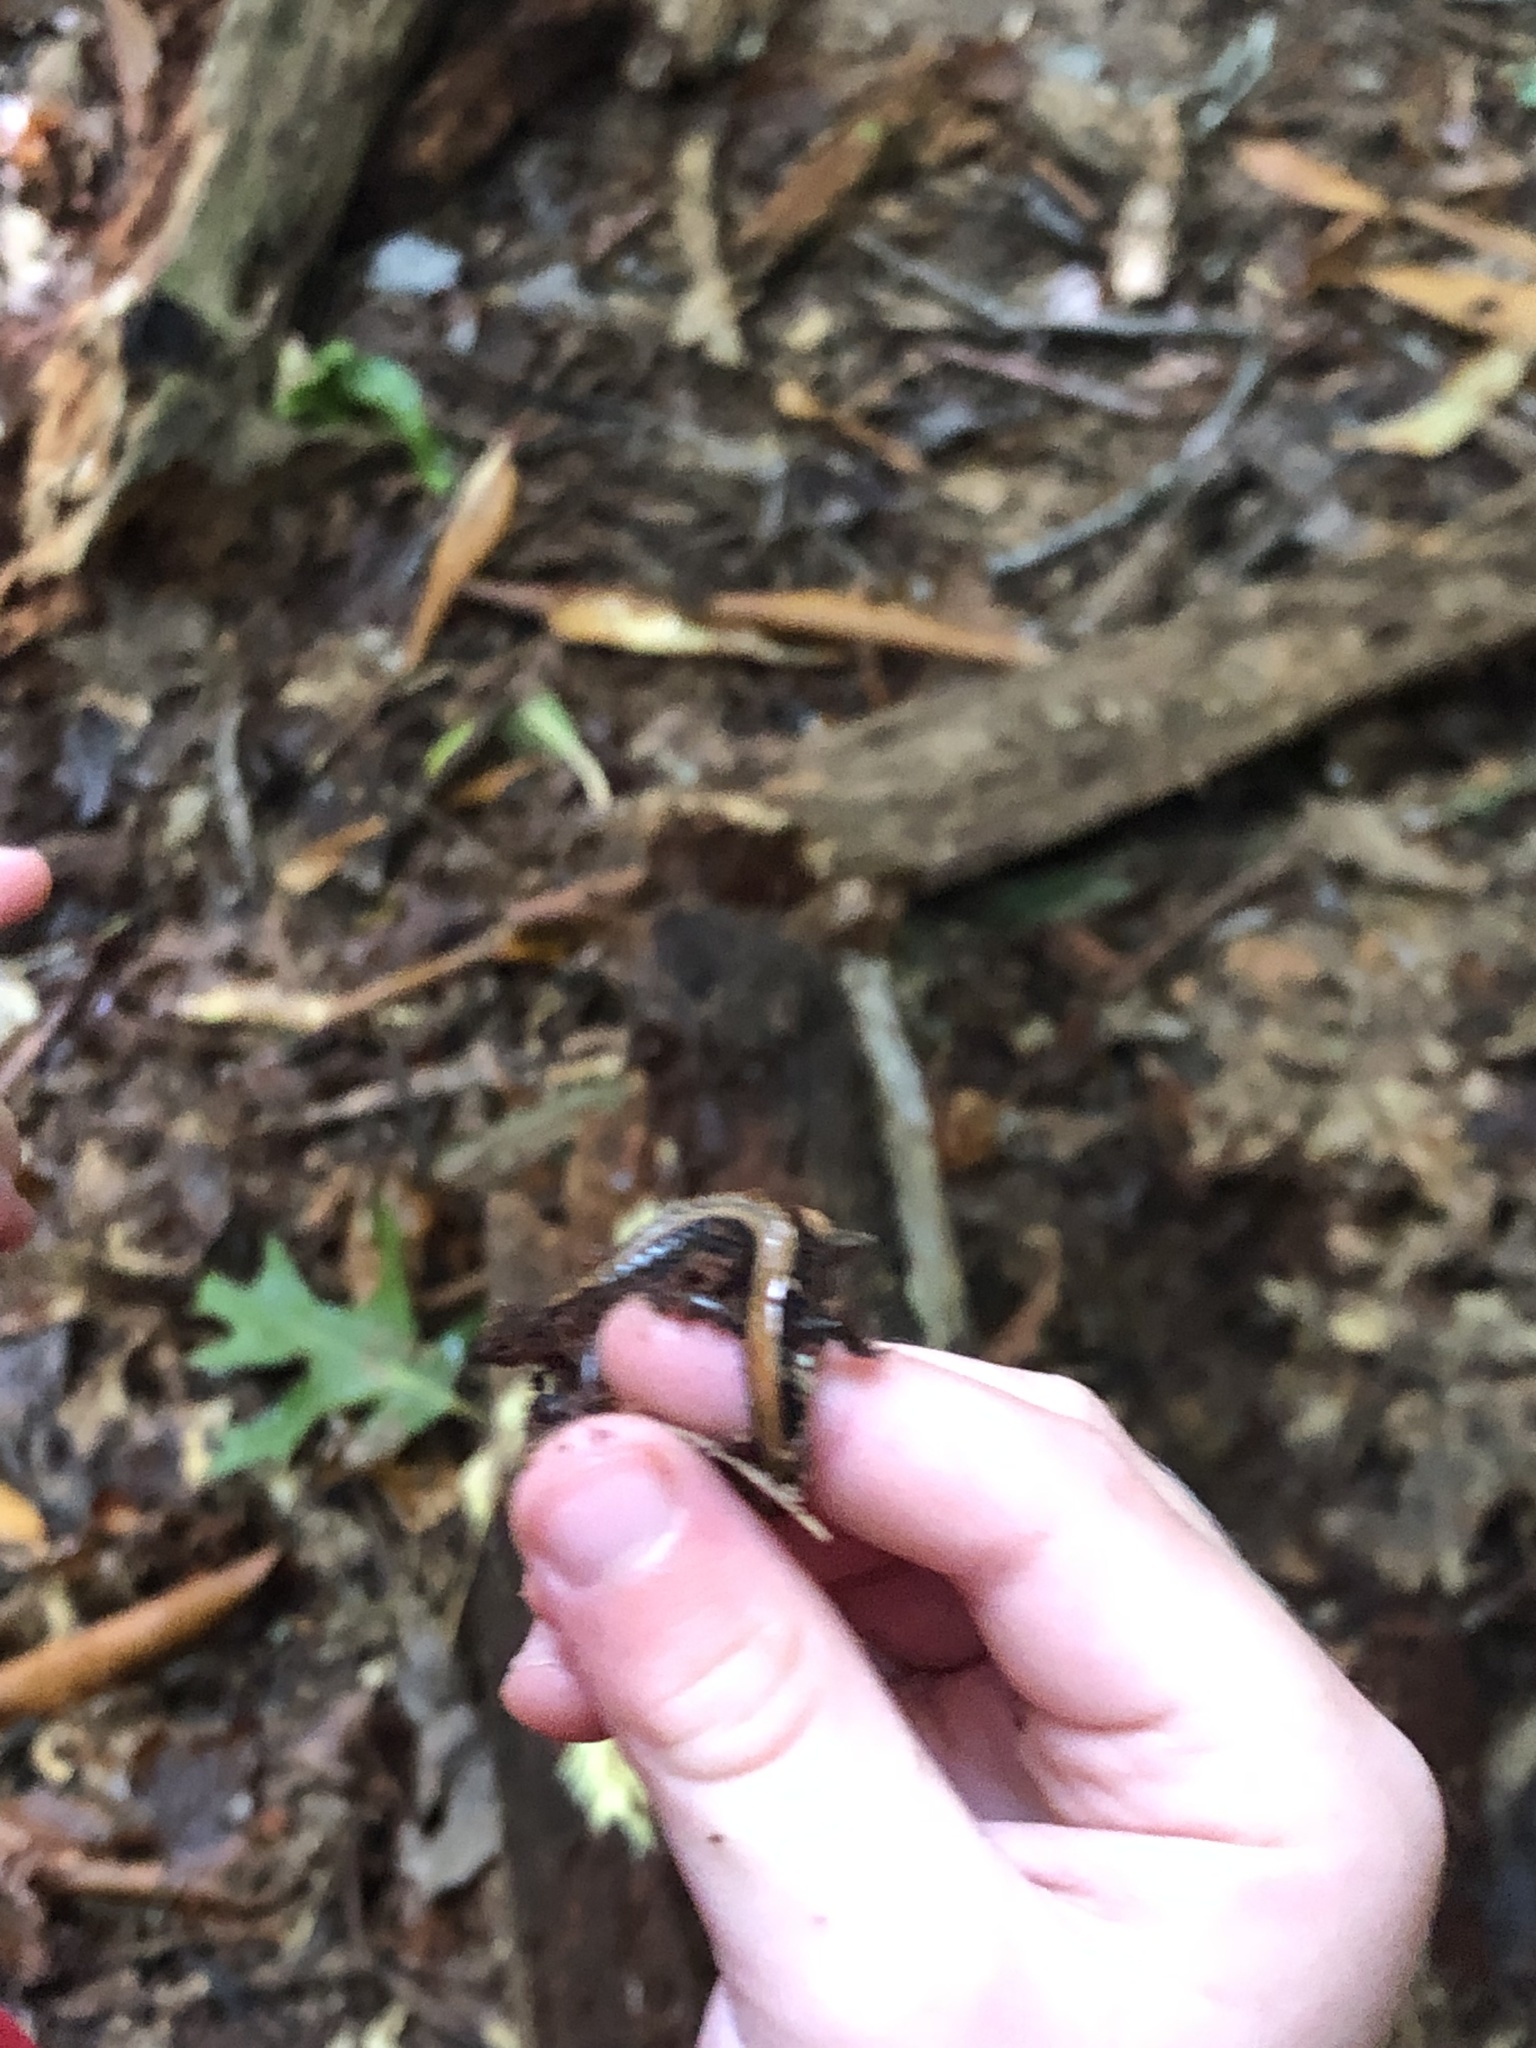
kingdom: Animalia
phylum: Chordata
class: Amphibia
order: Caudata
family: Plethodontidae
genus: Plethodon
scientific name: Plethodon cinereus
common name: Redback salamander
